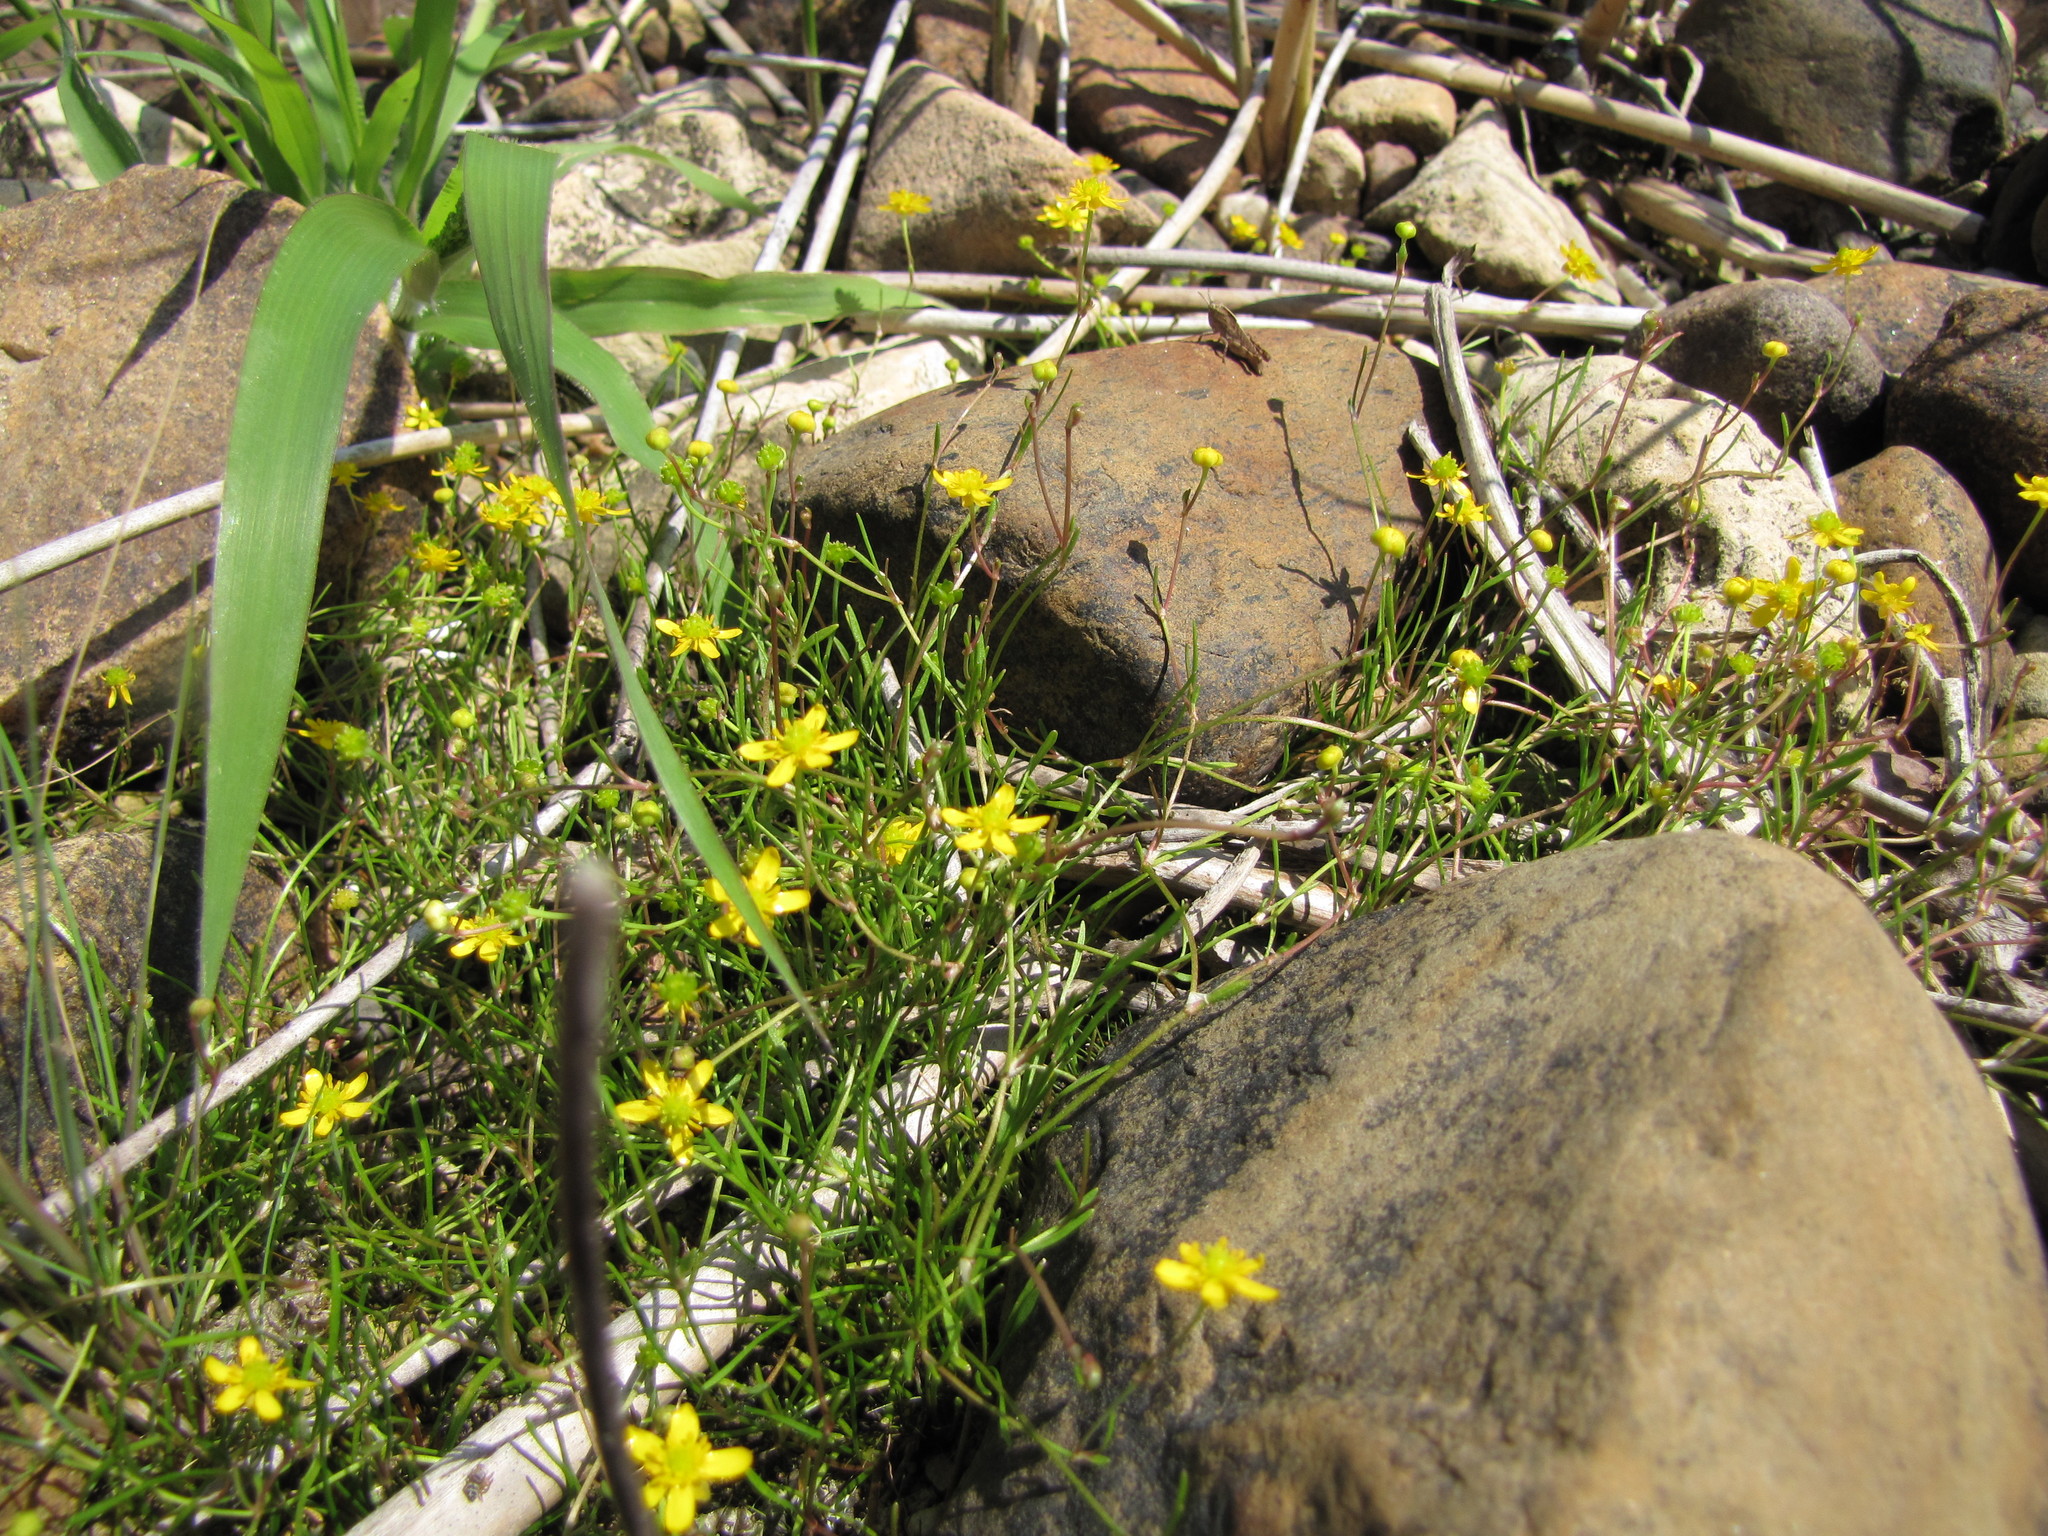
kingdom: Plantae
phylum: Tracheophyta
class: Magnoliopsida
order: Ranunculales
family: Ranunculaceae
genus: Ranunculus
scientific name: Ranunculus reptans
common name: Creeping spearwort
